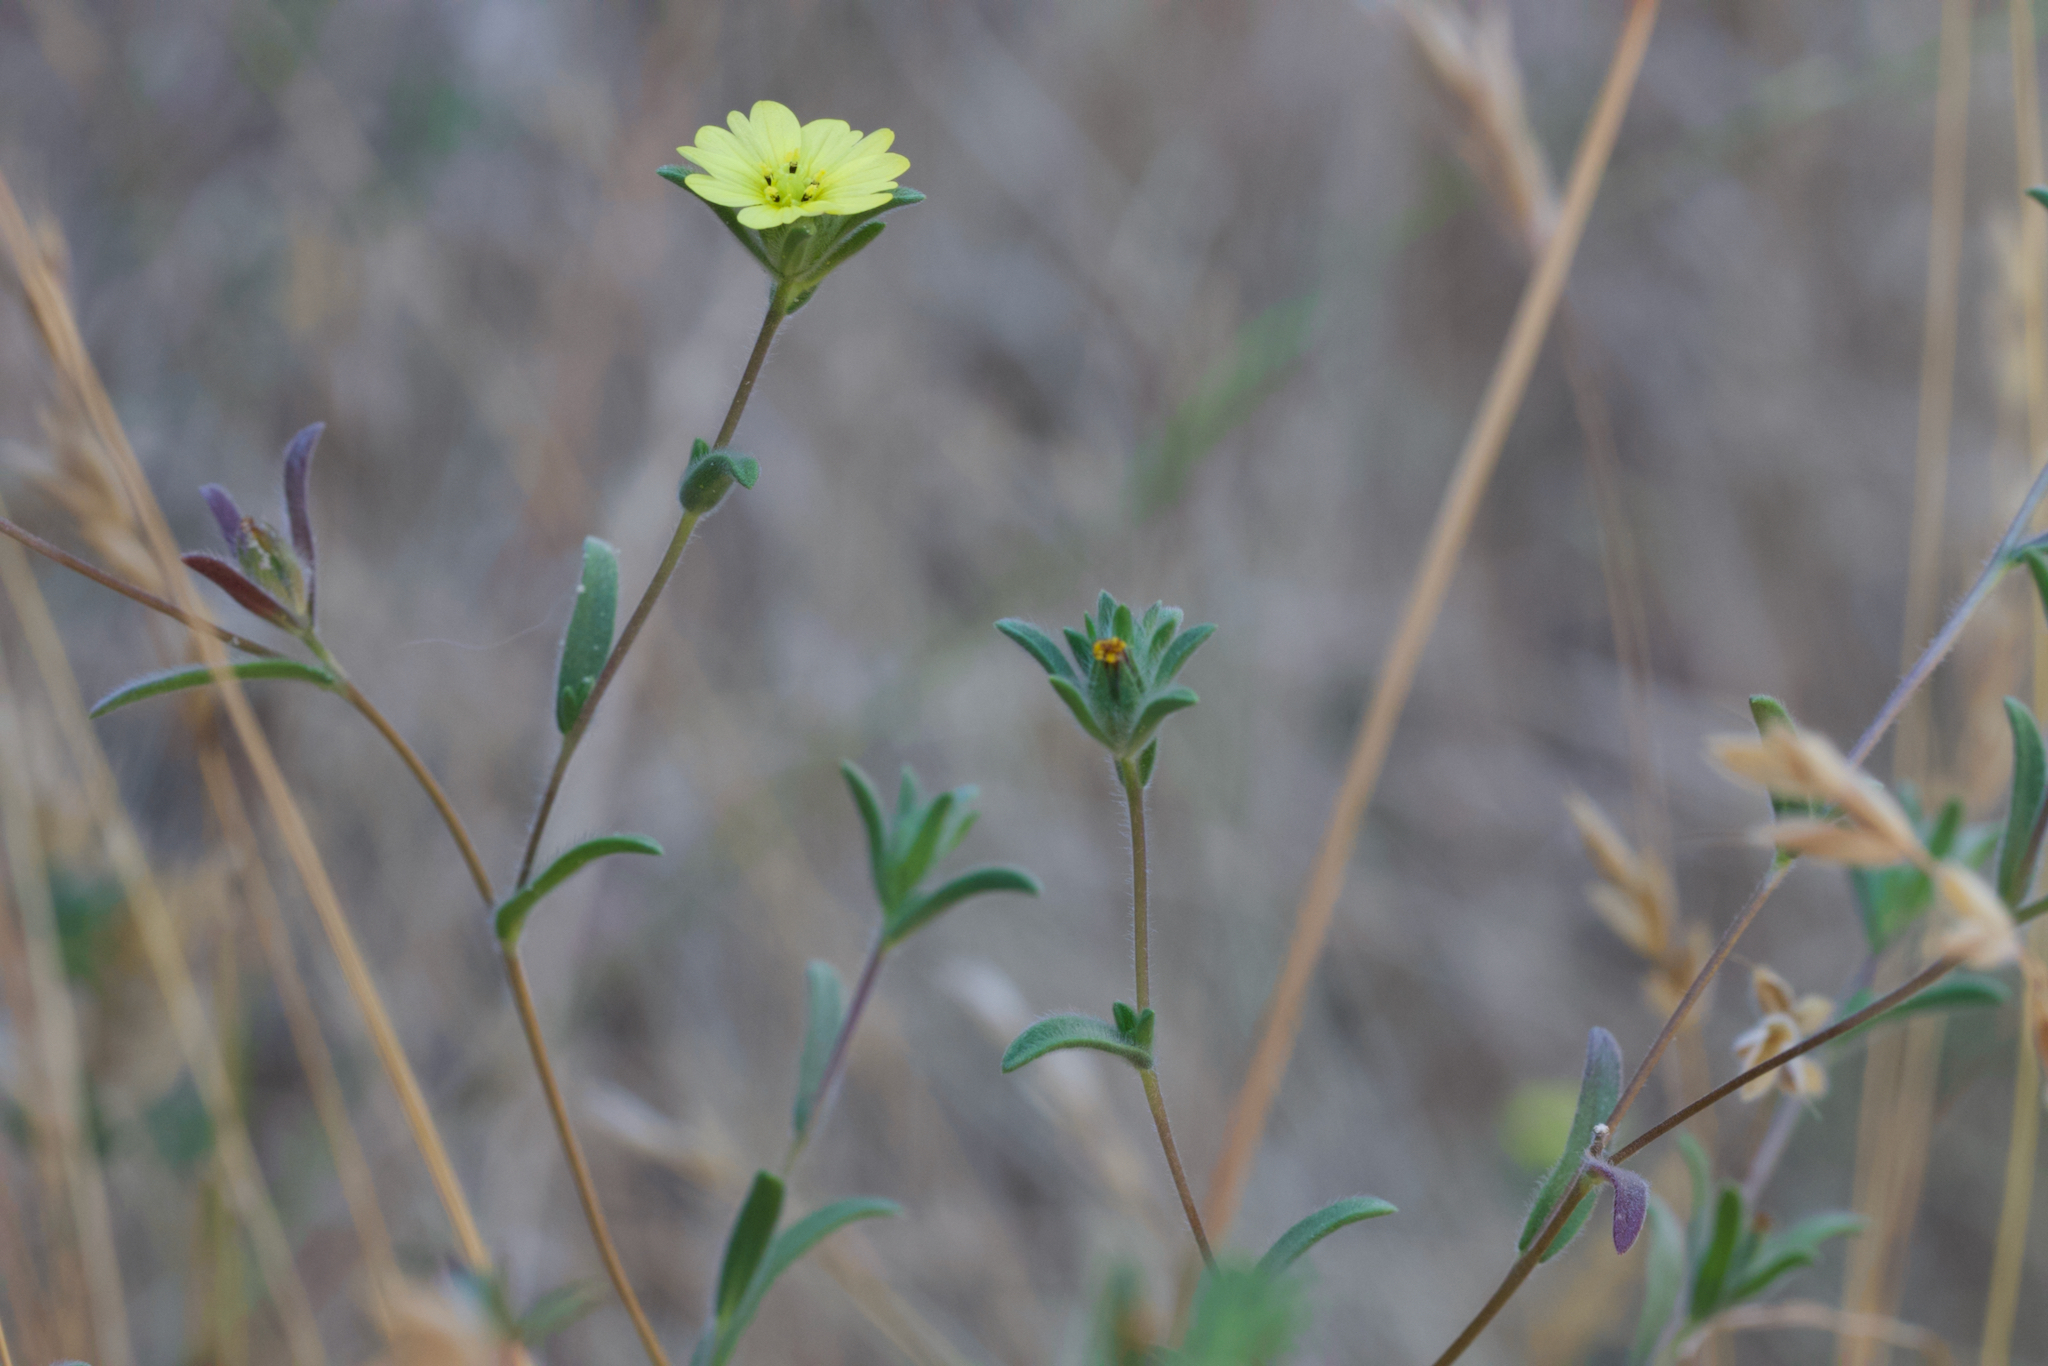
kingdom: Plantae
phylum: Tracheophyta
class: Magnoliopsida
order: Asterales
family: Asteraceae
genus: Lagophylla
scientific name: Lagophylla ramosissima
